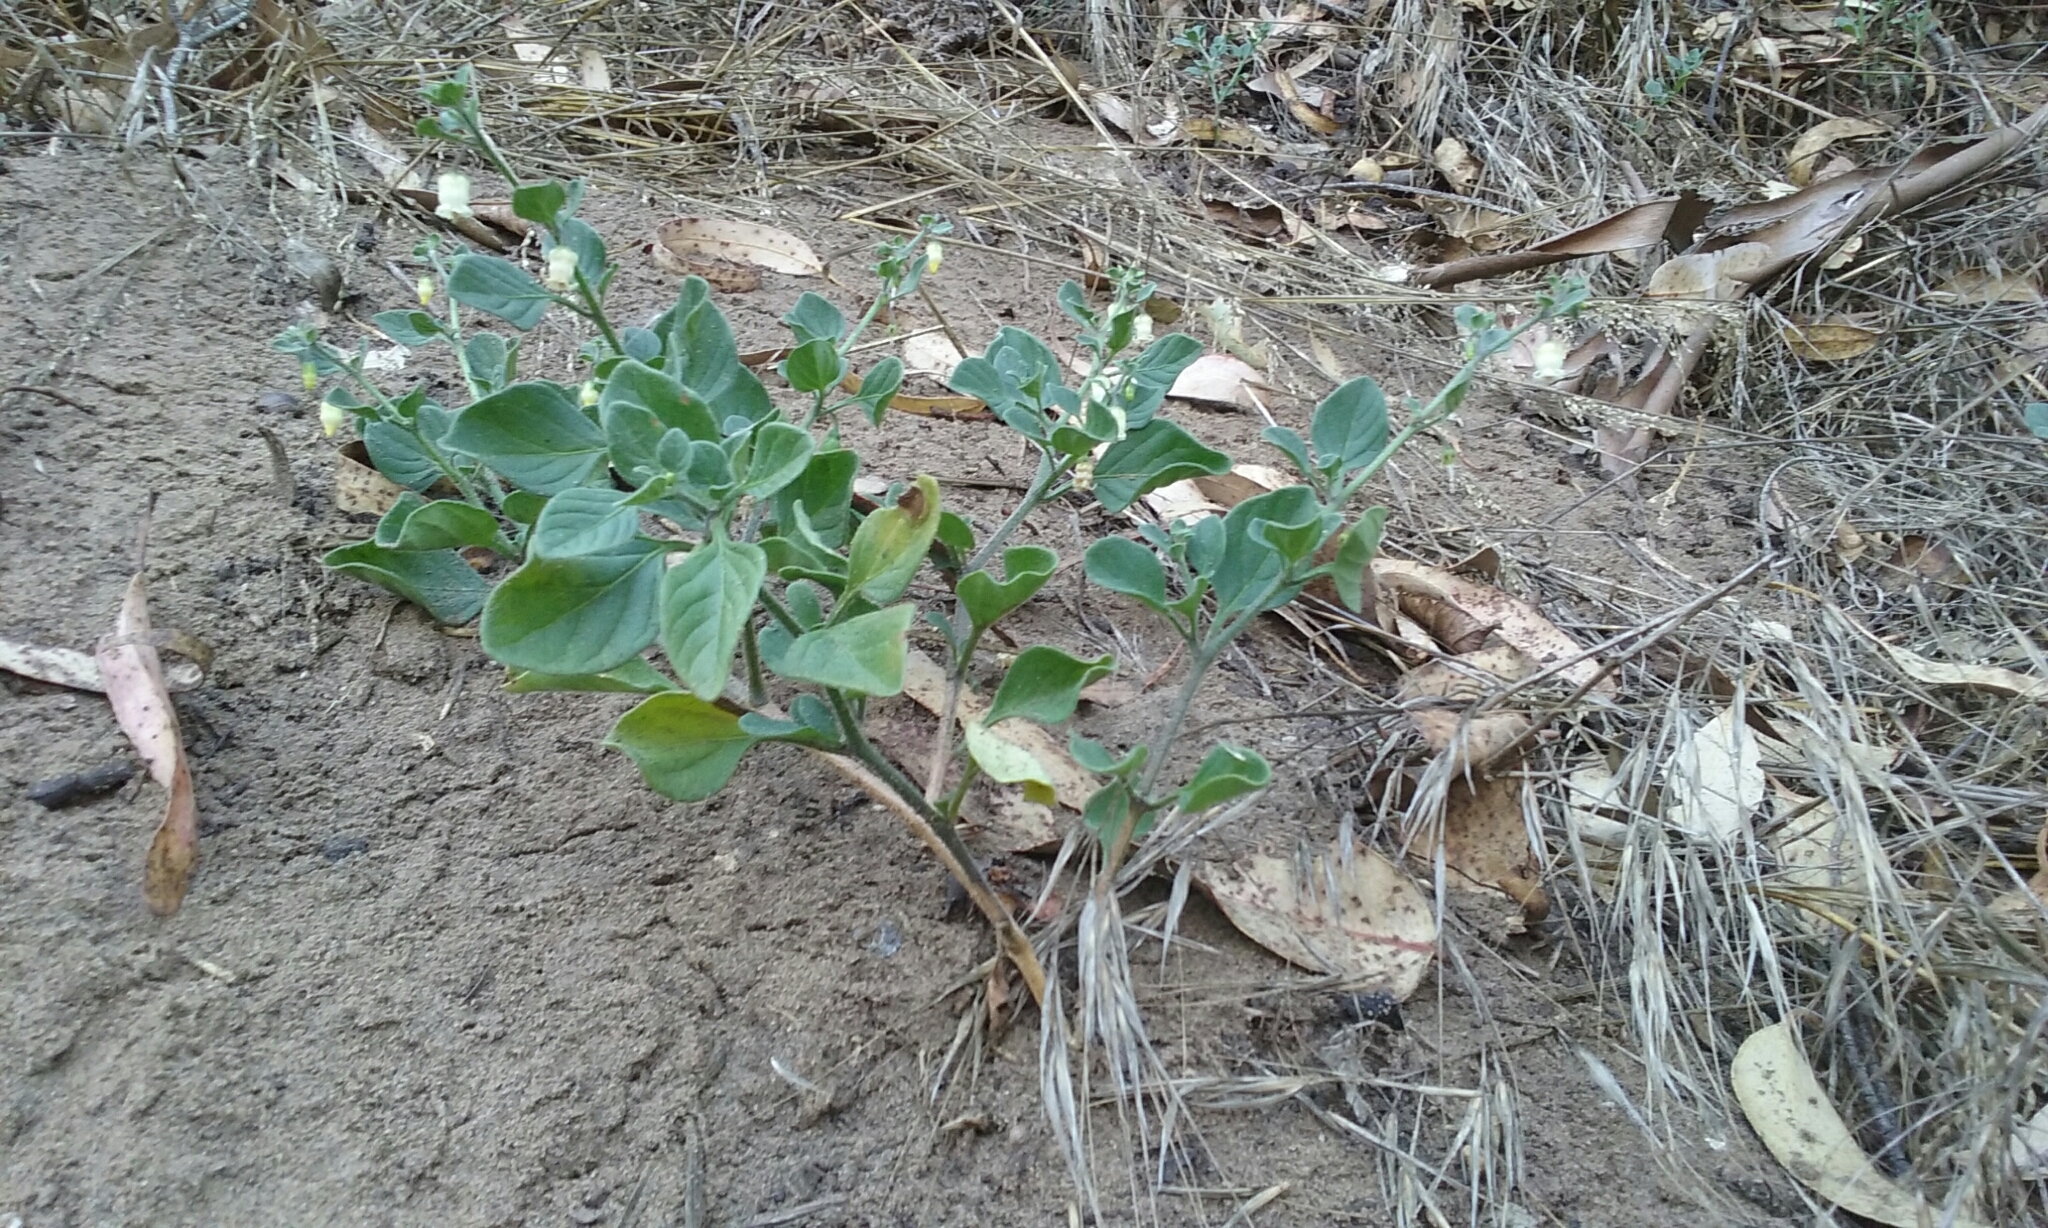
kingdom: Plantae
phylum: Tracheophyta
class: Magnoliopsida
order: Solanales
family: Solanaceae
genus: Salpichroa
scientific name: Salpichroa origanifolia
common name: Lily-of-the-valley-vine
